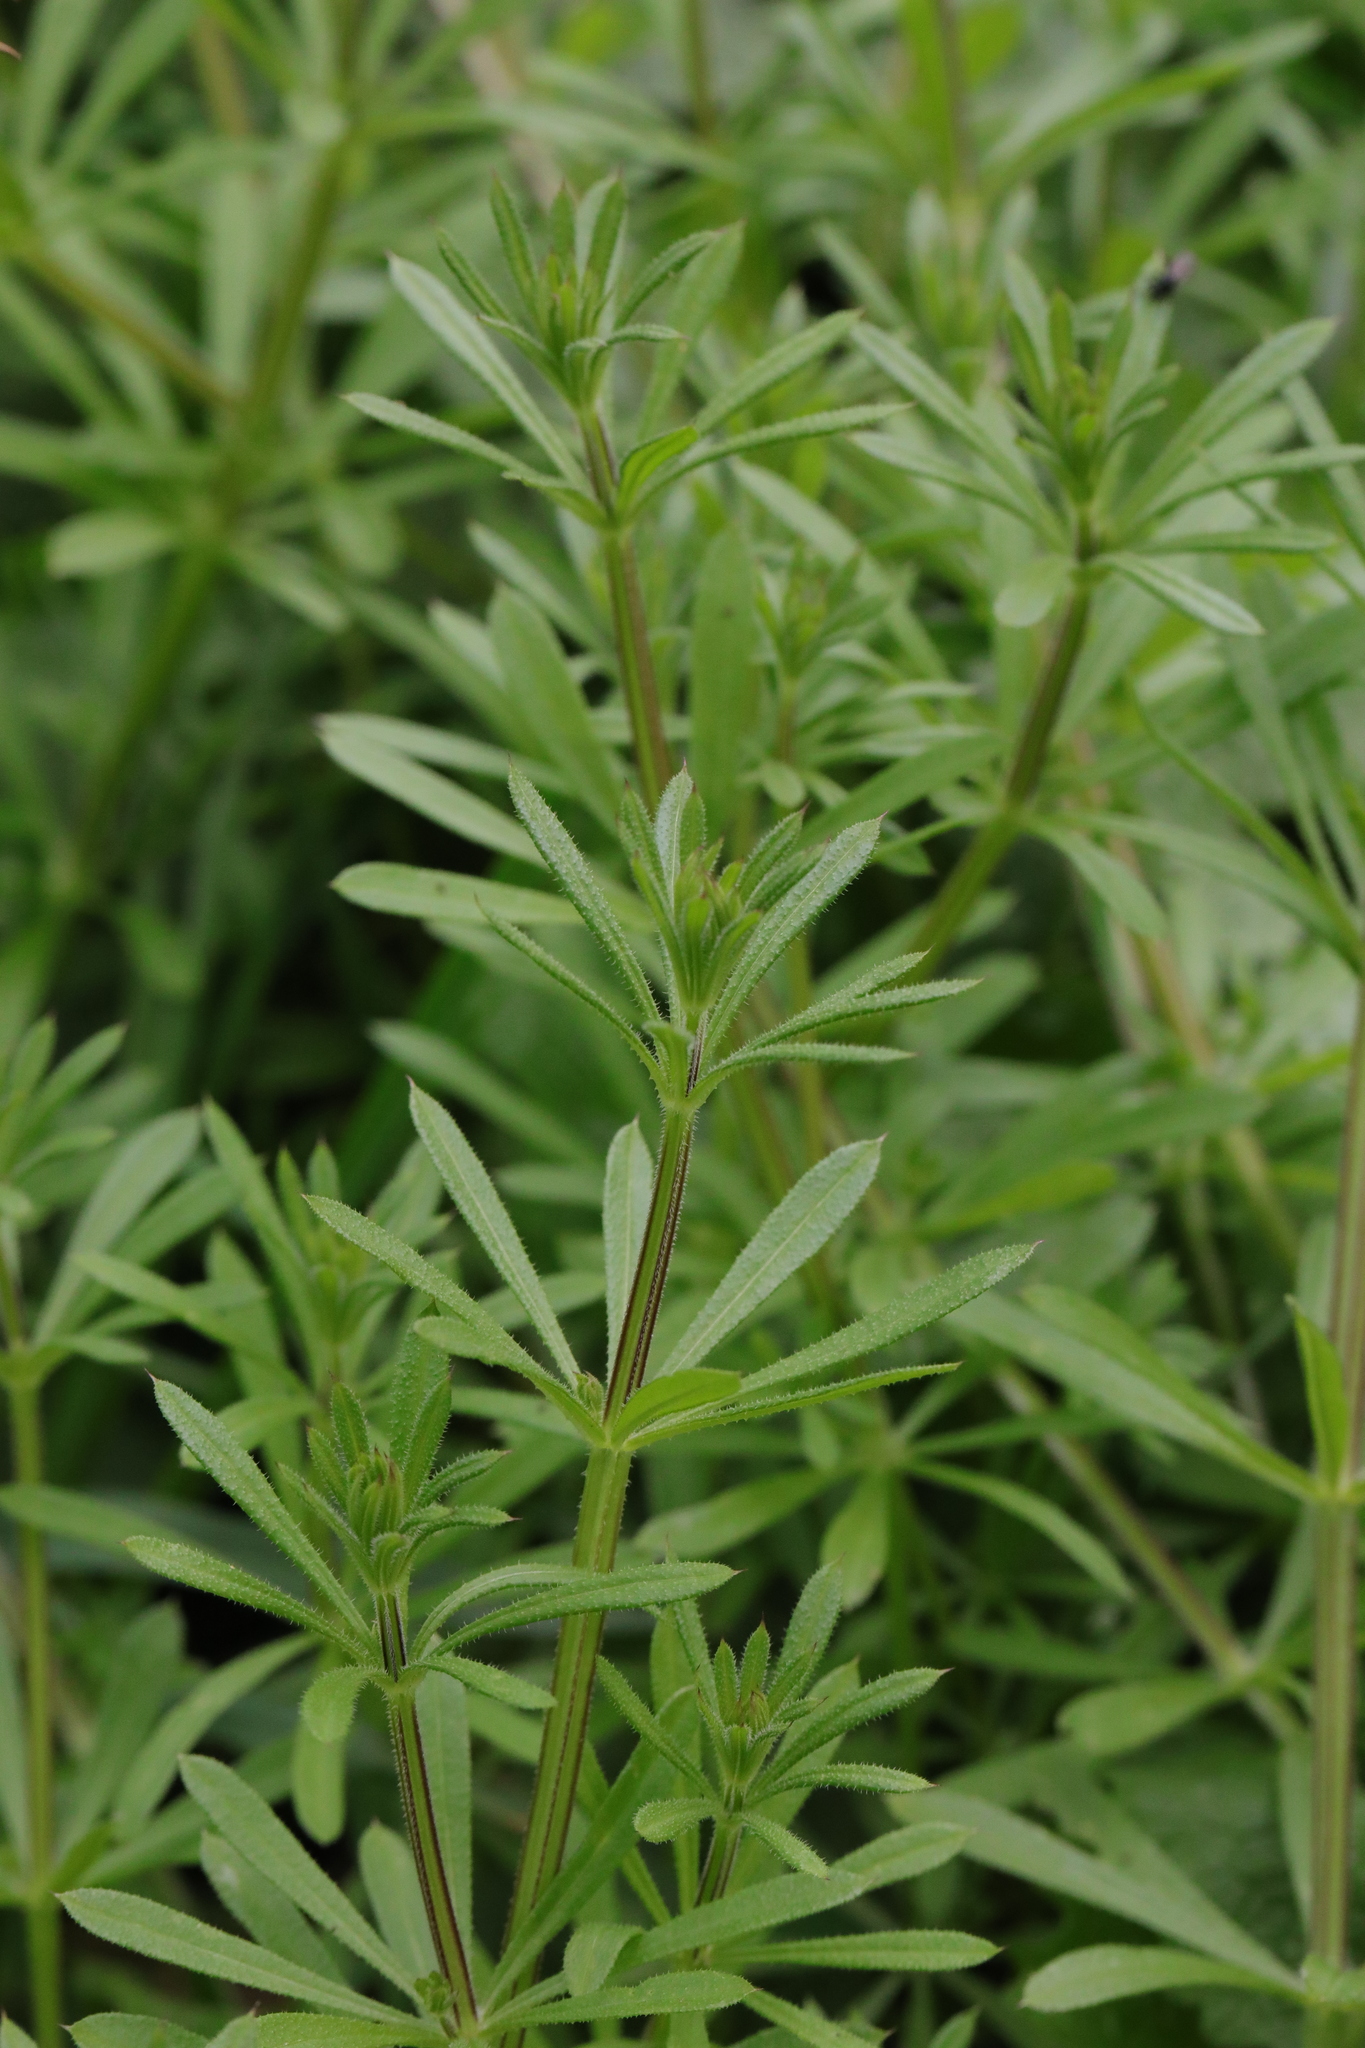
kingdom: Plantae
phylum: Tracheophyta
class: Magnoliopsida
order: Gentianales
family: Rubiaceae
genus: Galium
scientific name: Galium aparine
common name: Cleavers
